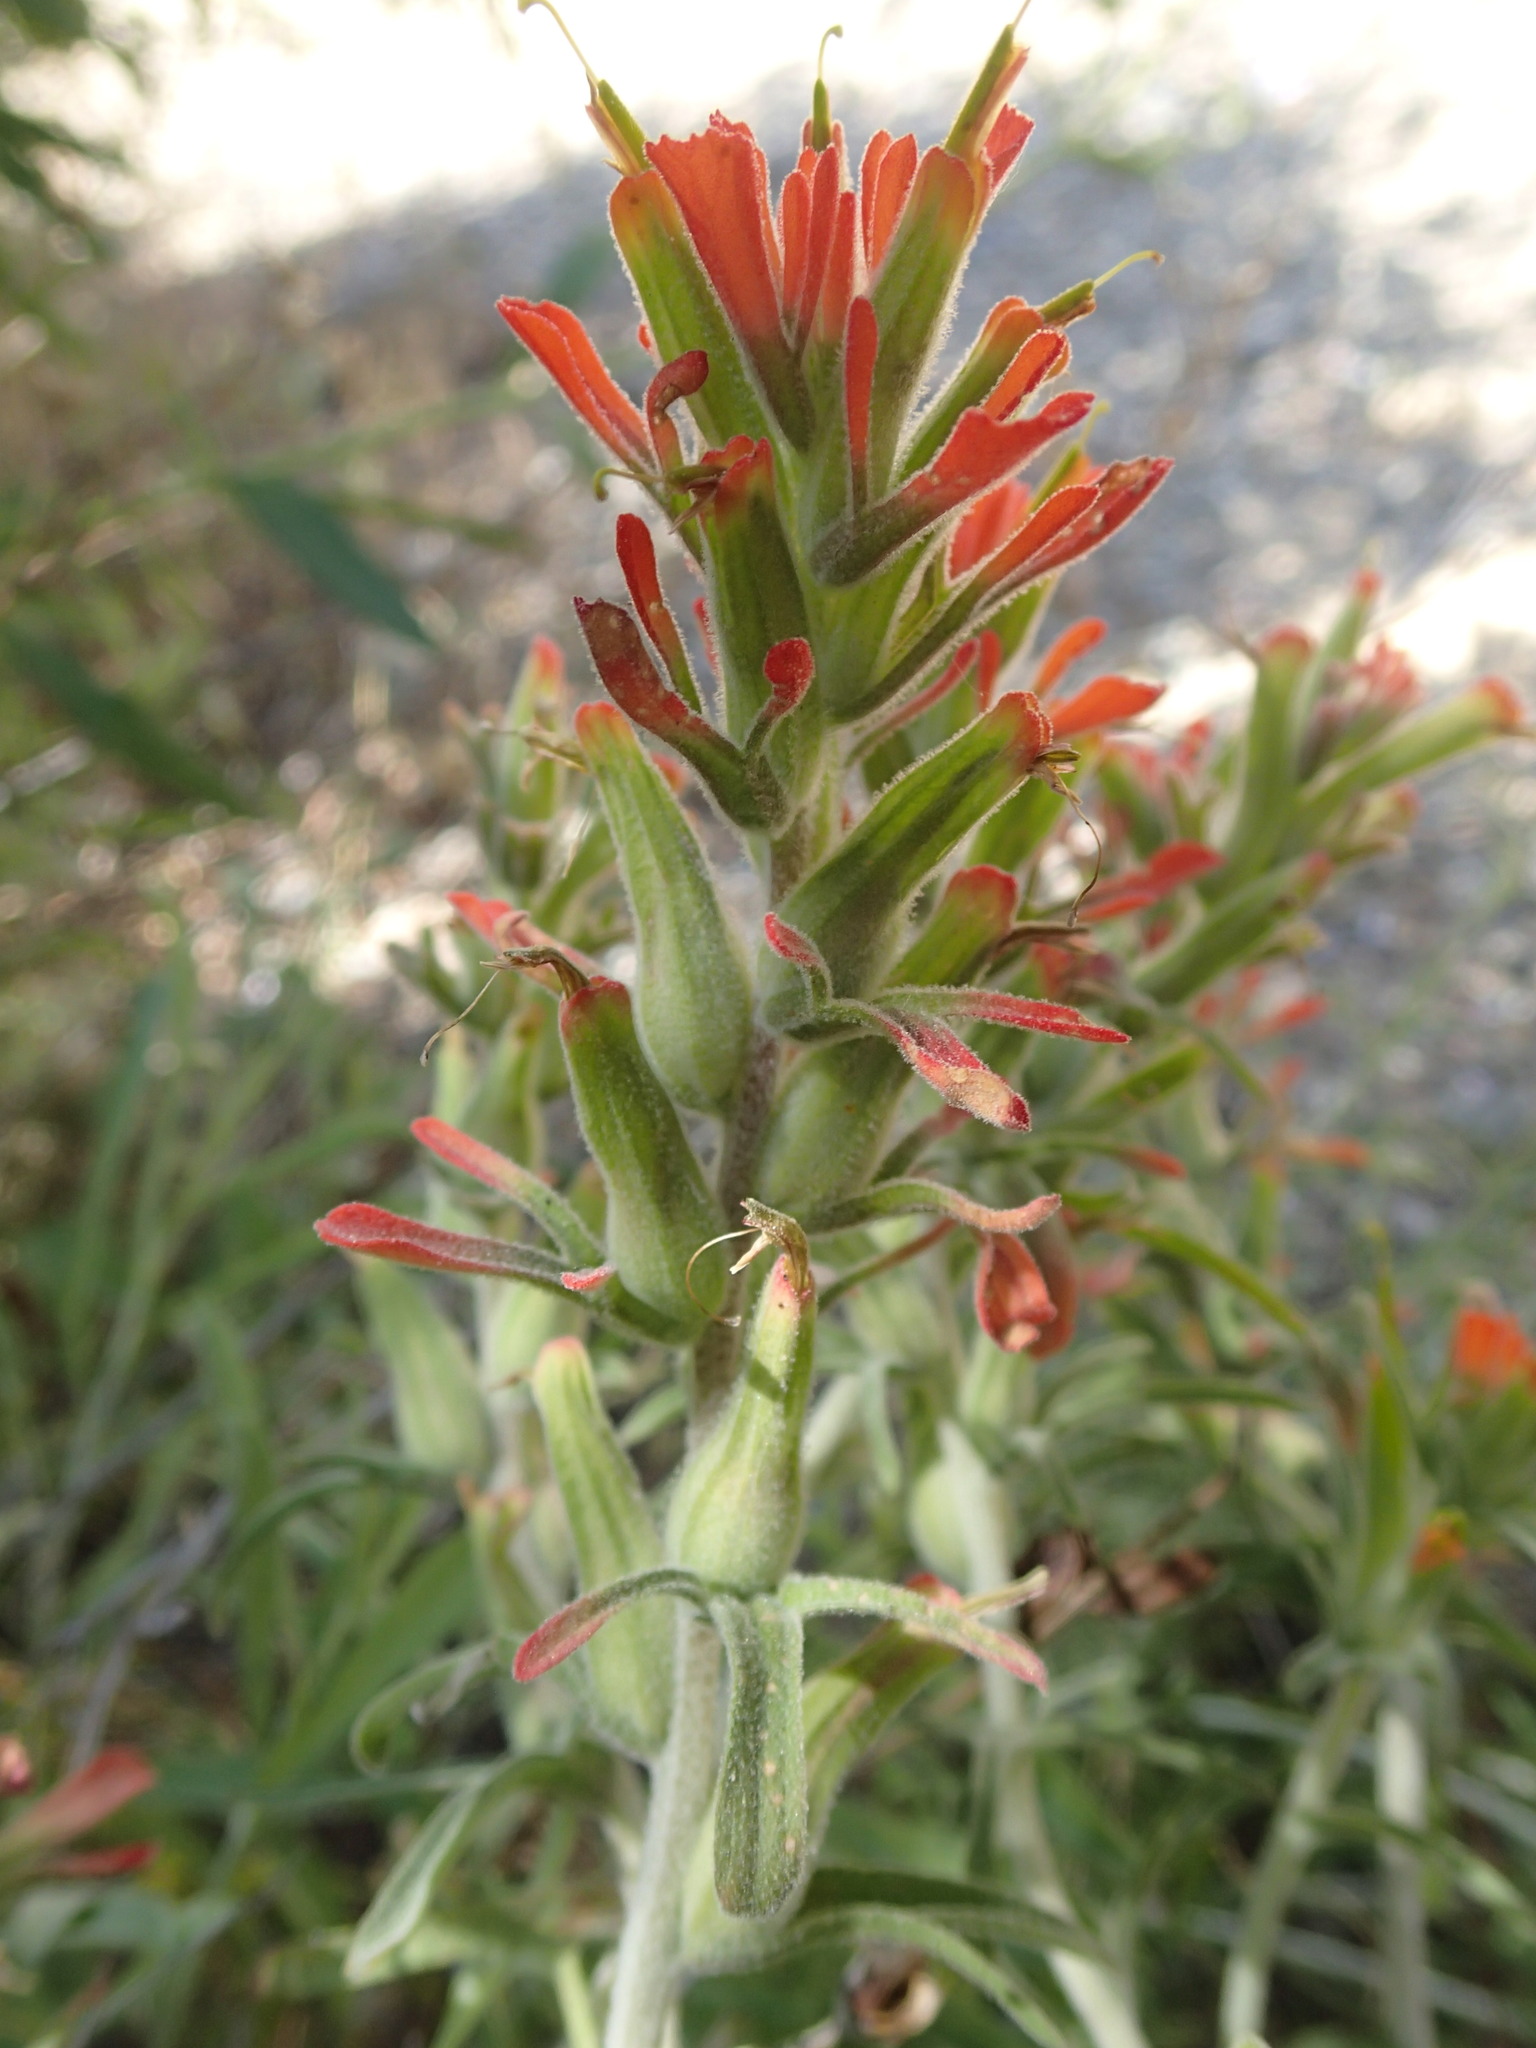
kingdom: Plantae
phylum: Tracheophyta
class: Magnoliopsida
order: Lamiales
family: Orobanchaceae
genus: Castilleja
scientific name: Castilleja foliolosa
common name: Woolly indian paintbrush
